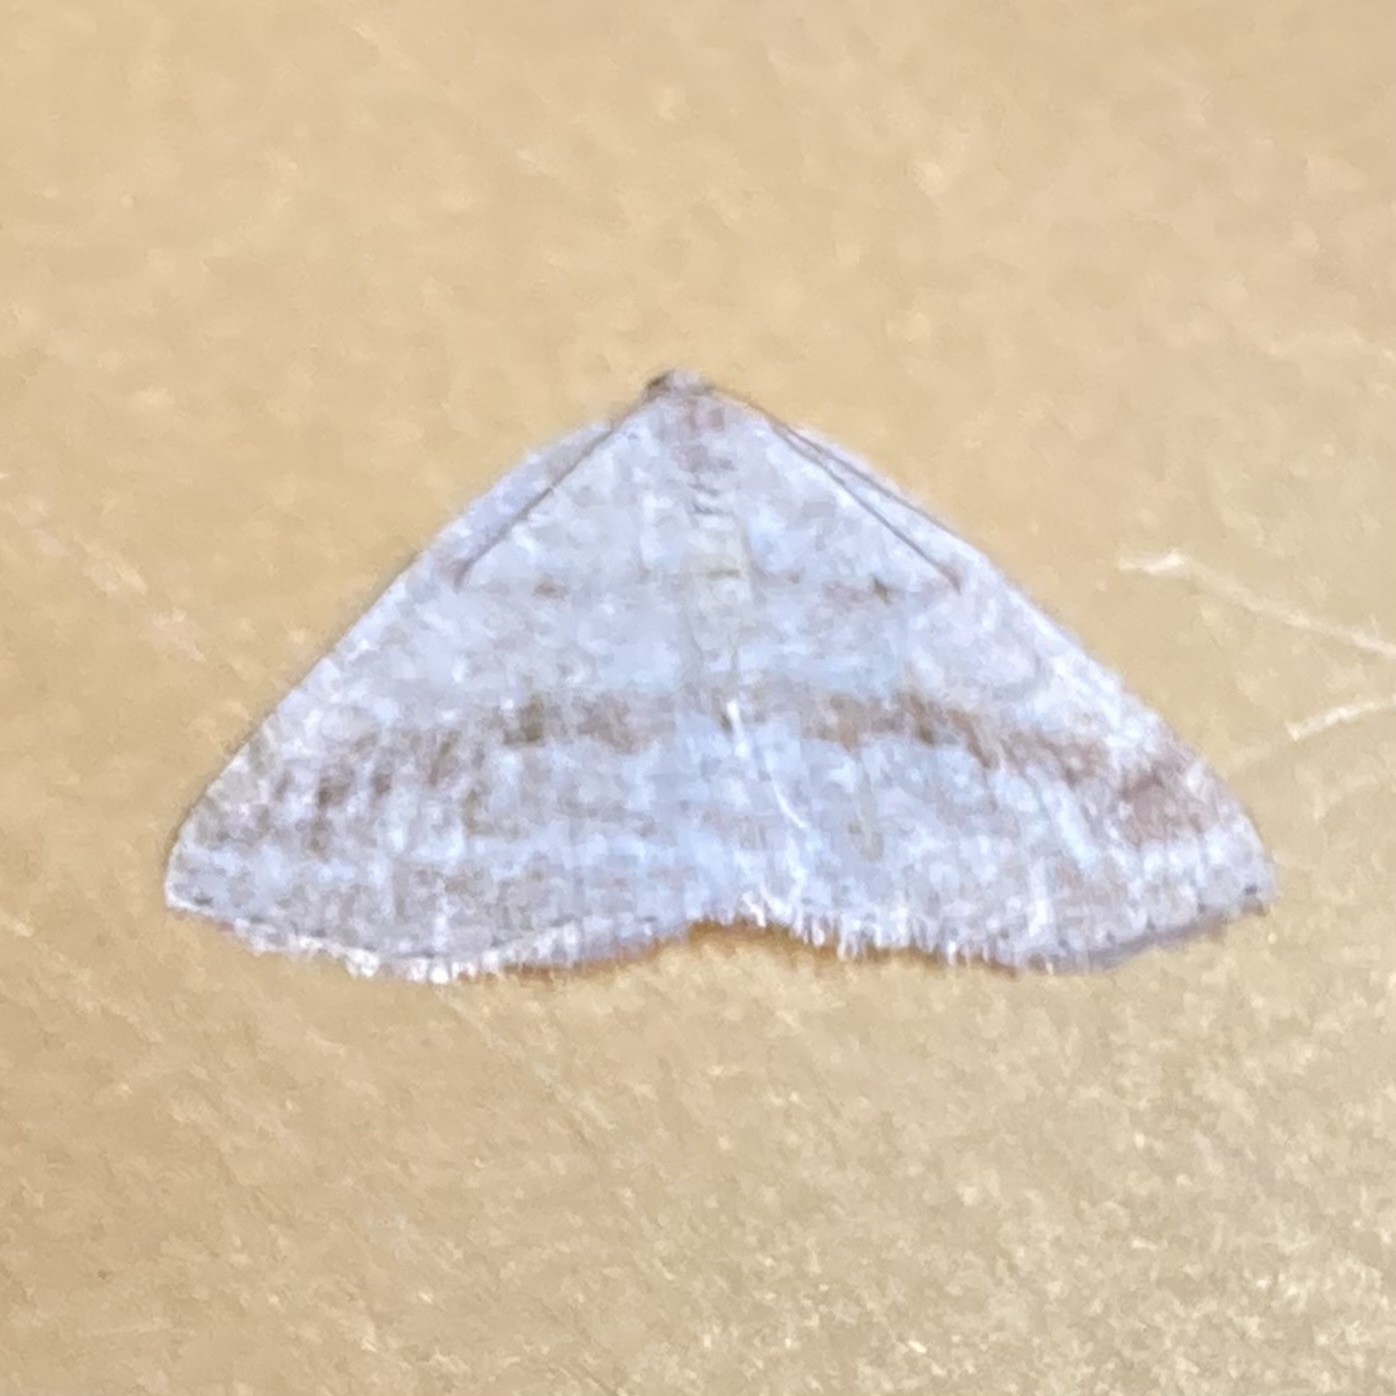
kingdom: Animalia
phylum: Arthropoda
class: Insecta
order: Lepidoptera
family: Geometridae
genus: Tacparia
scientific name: Tacparia detersata
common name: Pale alder moth
